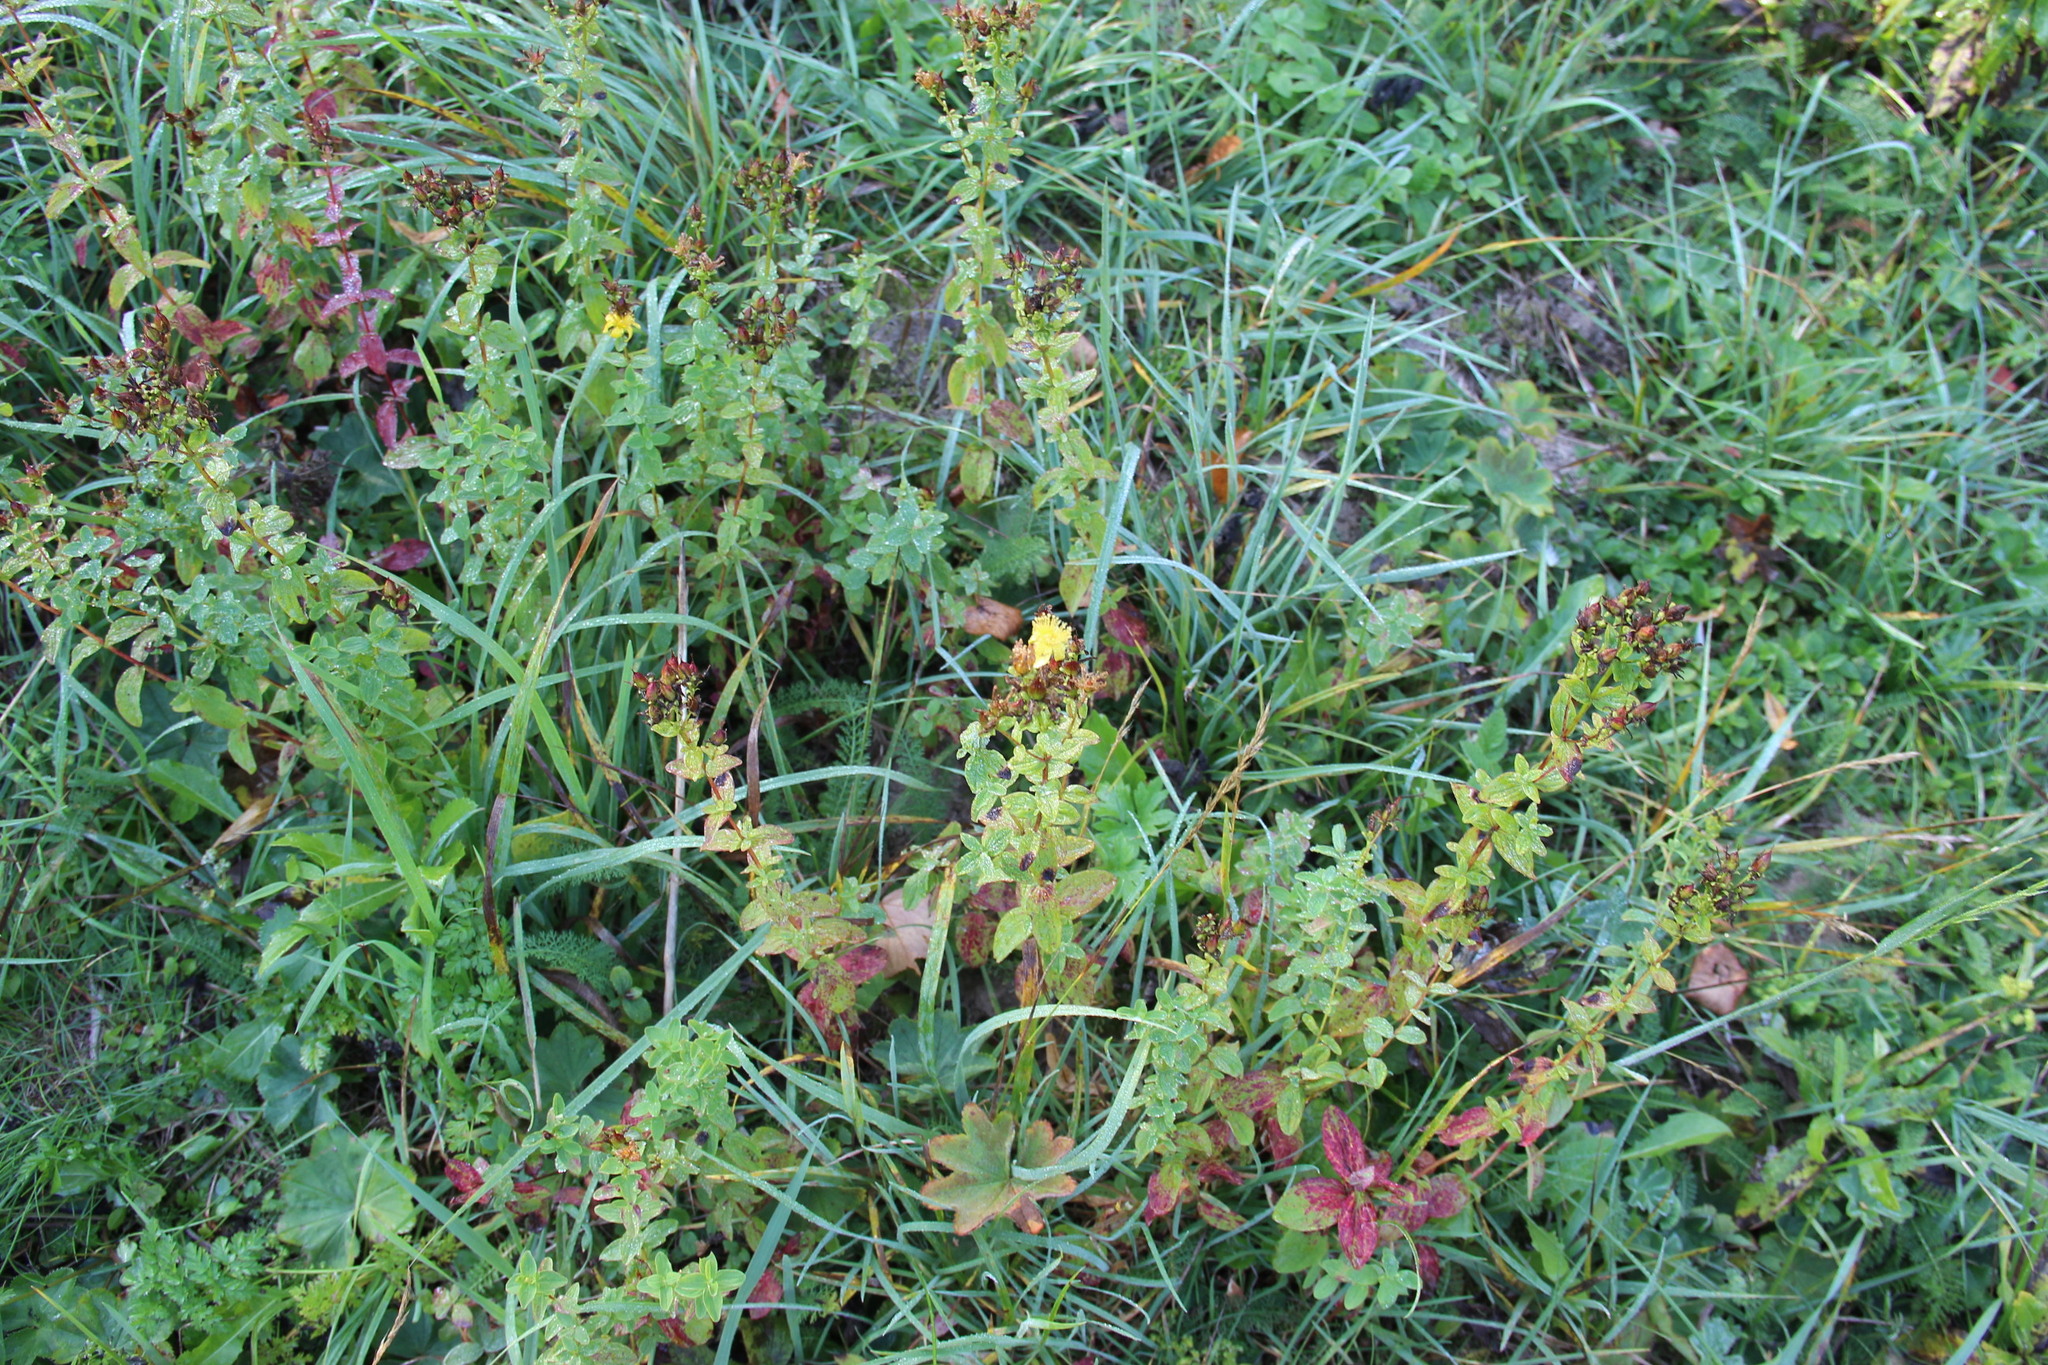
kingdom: Plantae
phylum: Tracheophyta
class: Magnoliopsida
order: Malpighiales
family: Hypericaceae
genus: Hypericum
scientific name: Hypericum maculatum
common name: Imperforate st. john's-wort
